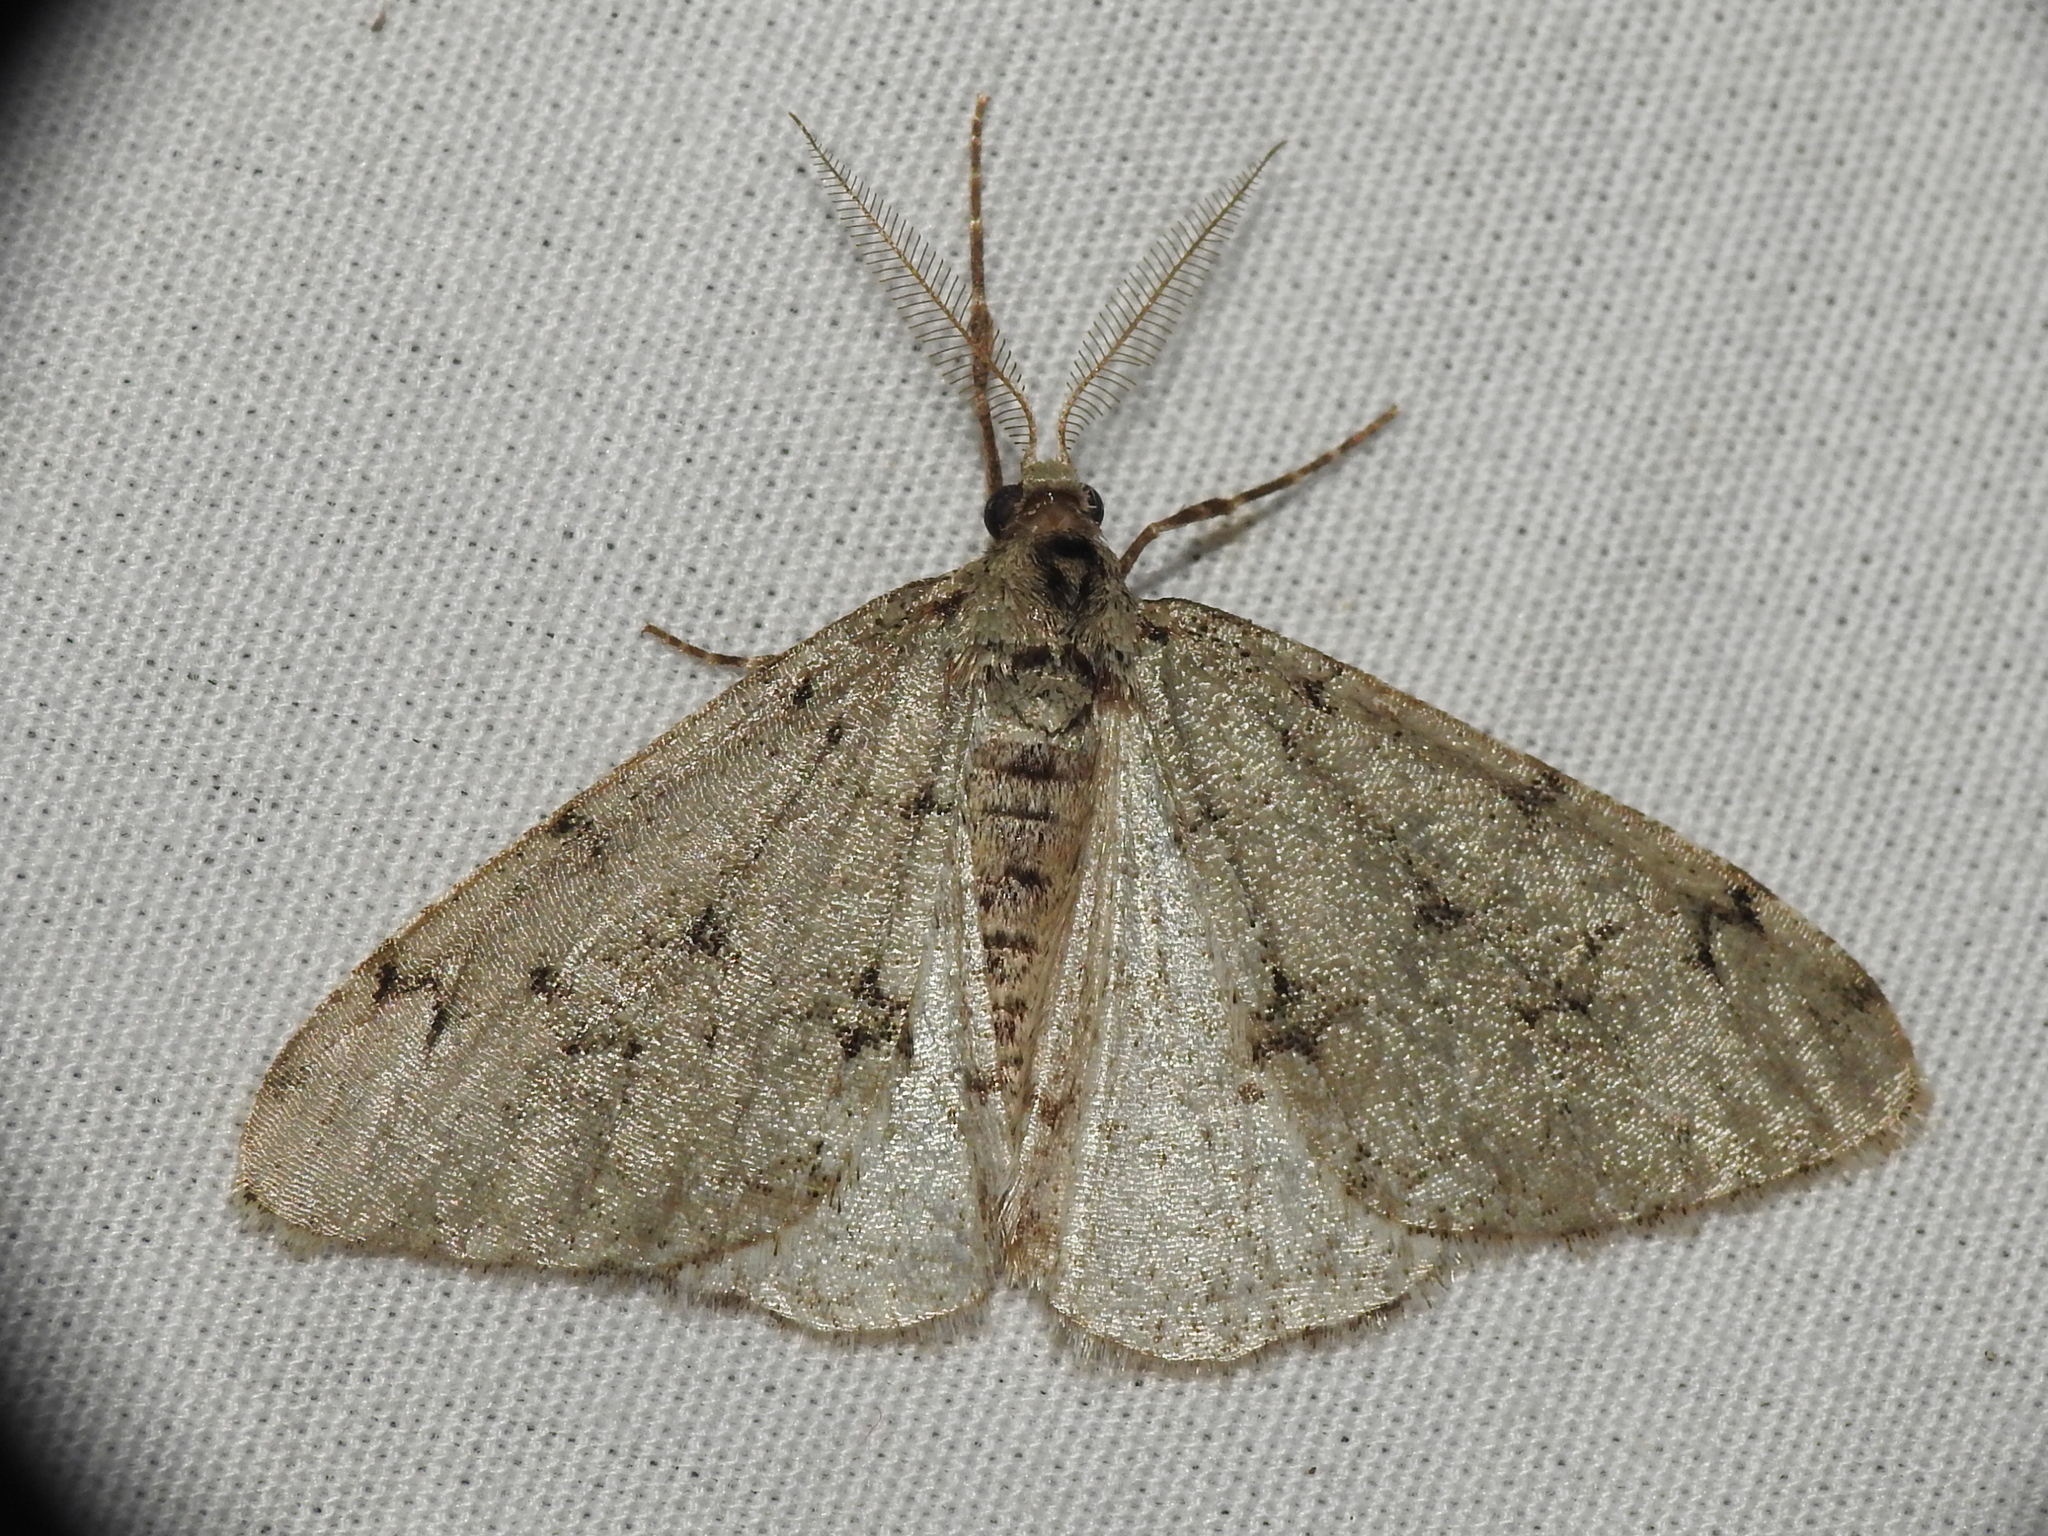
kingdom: Animalia
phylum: Arthropoda
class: Insecta
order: Lepidoptera
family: Geometridae
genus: Phigalia
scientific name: Phigalia strigataria
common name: Small phigalia
